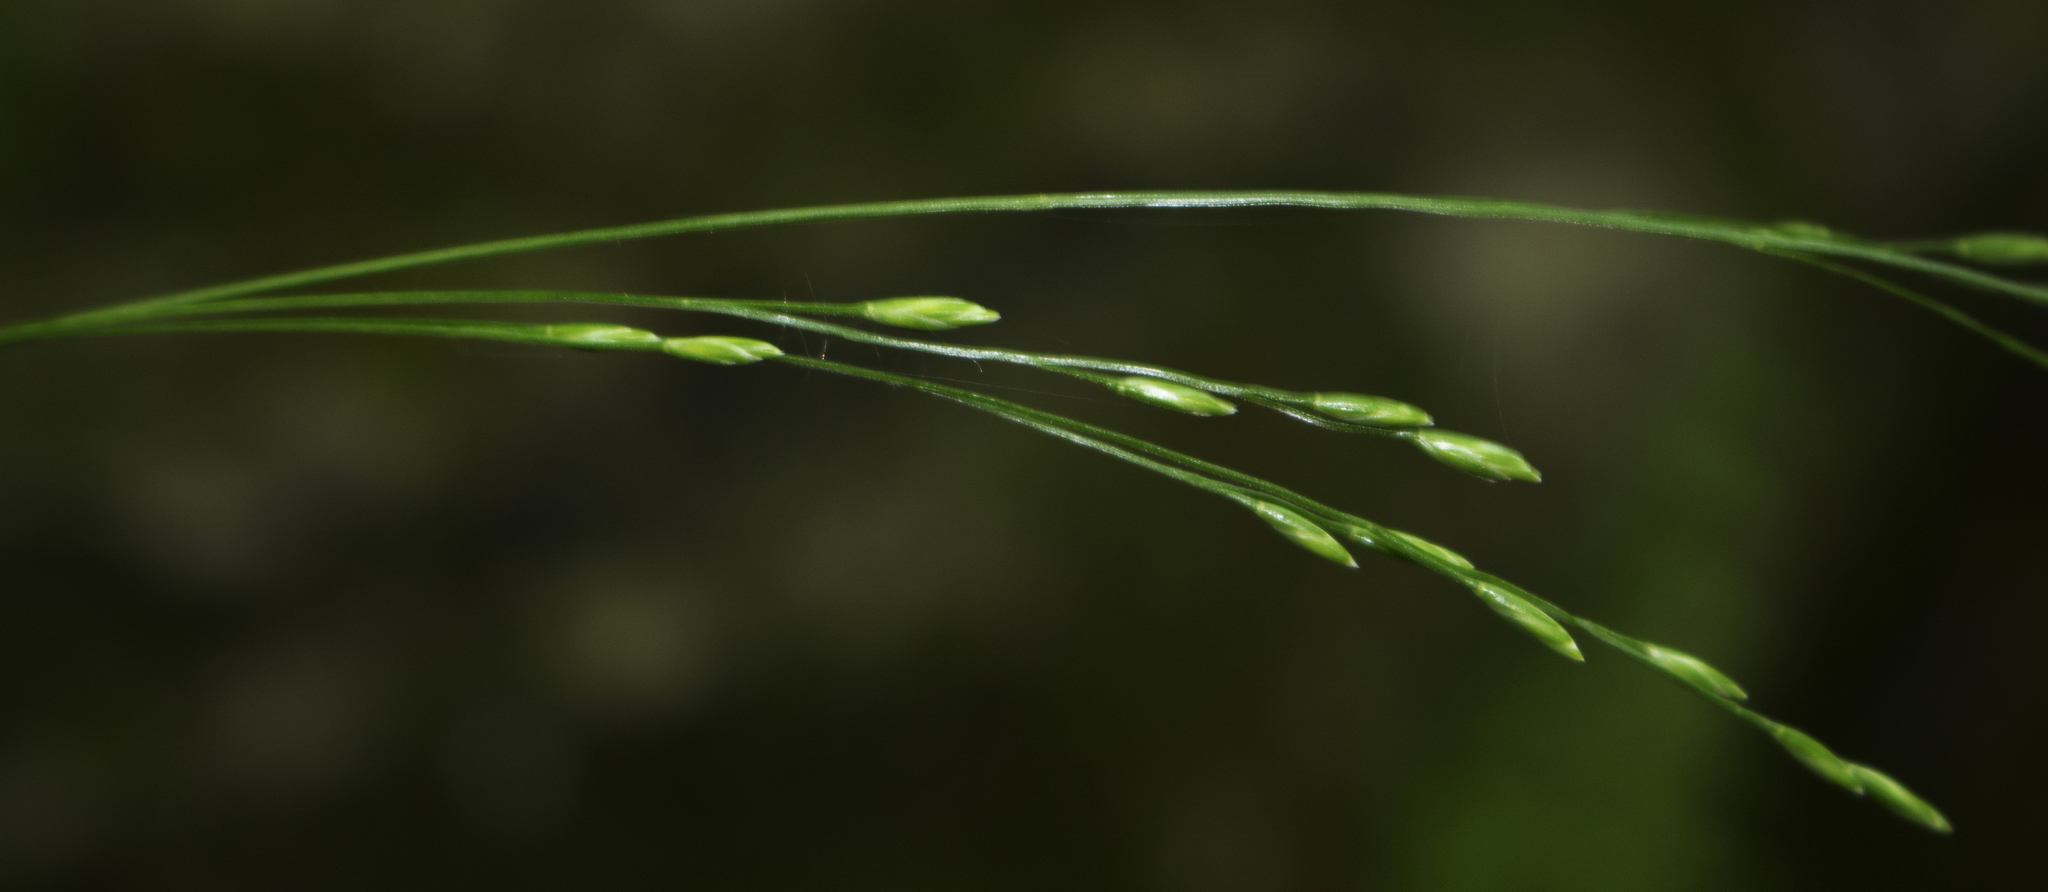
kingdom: Plantae
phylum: Tracheophyta
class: Liliopsida
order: Poales
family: Poaceae
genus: Festuca
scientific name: Festuca subverticillata
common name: Nodding fescue
